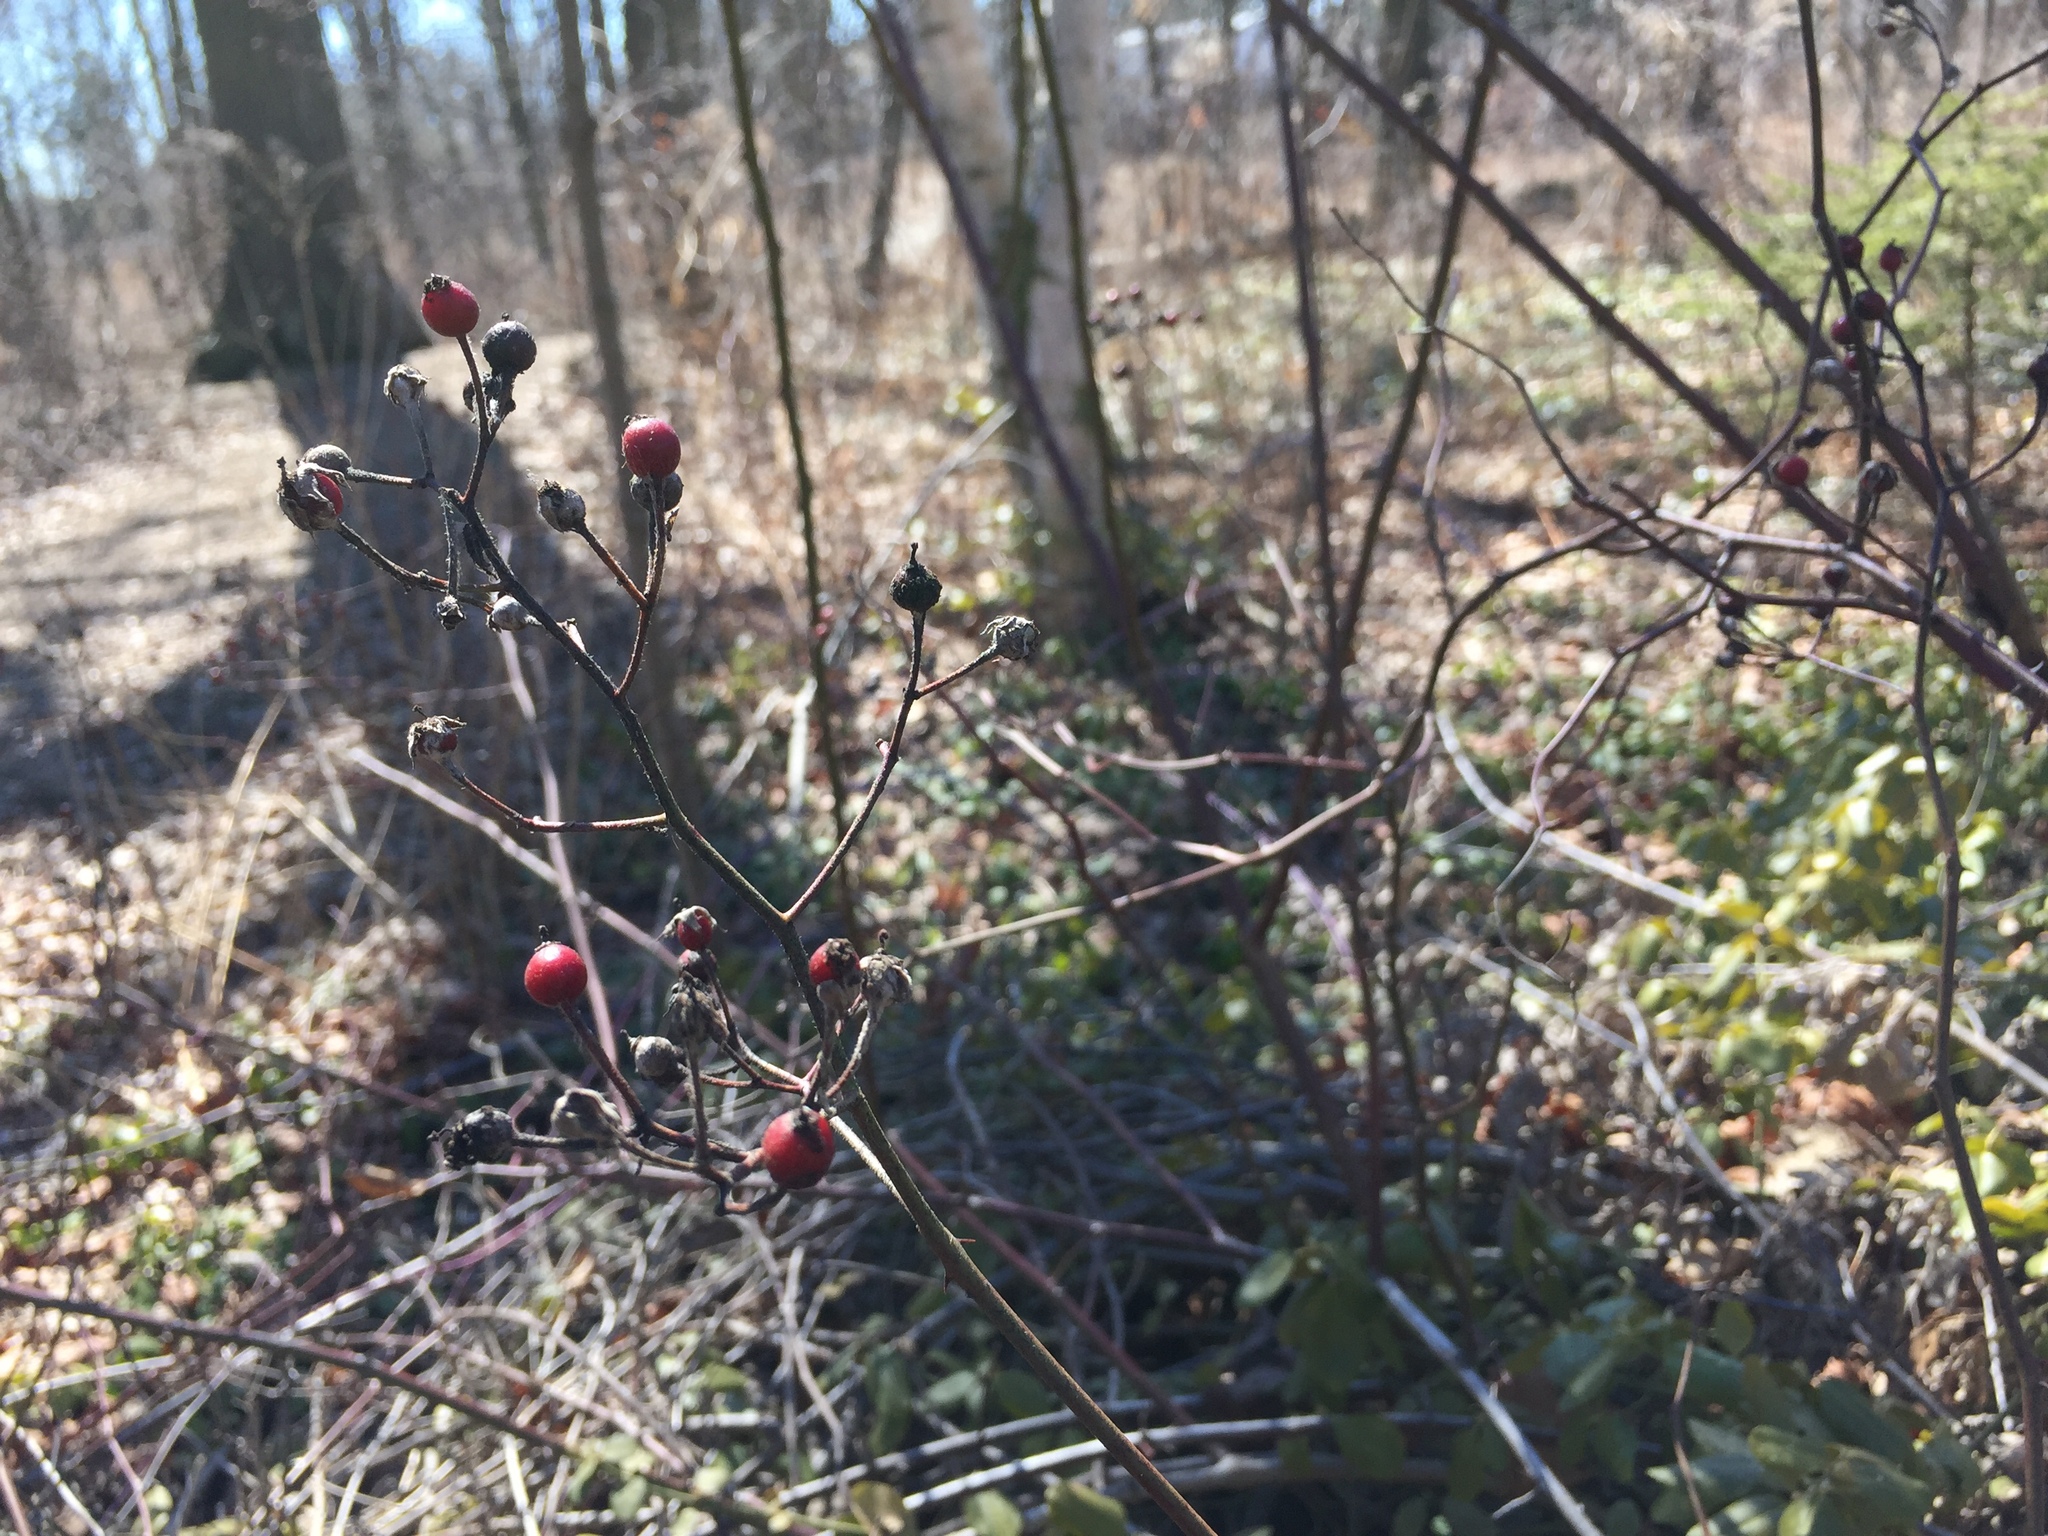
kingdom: Plantae
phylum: Tracheophyta
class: Magnoliopsida
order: Rosales
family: Rosaceae
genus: Rosa
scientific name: Rosa multiflora
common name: Multiflora rose
